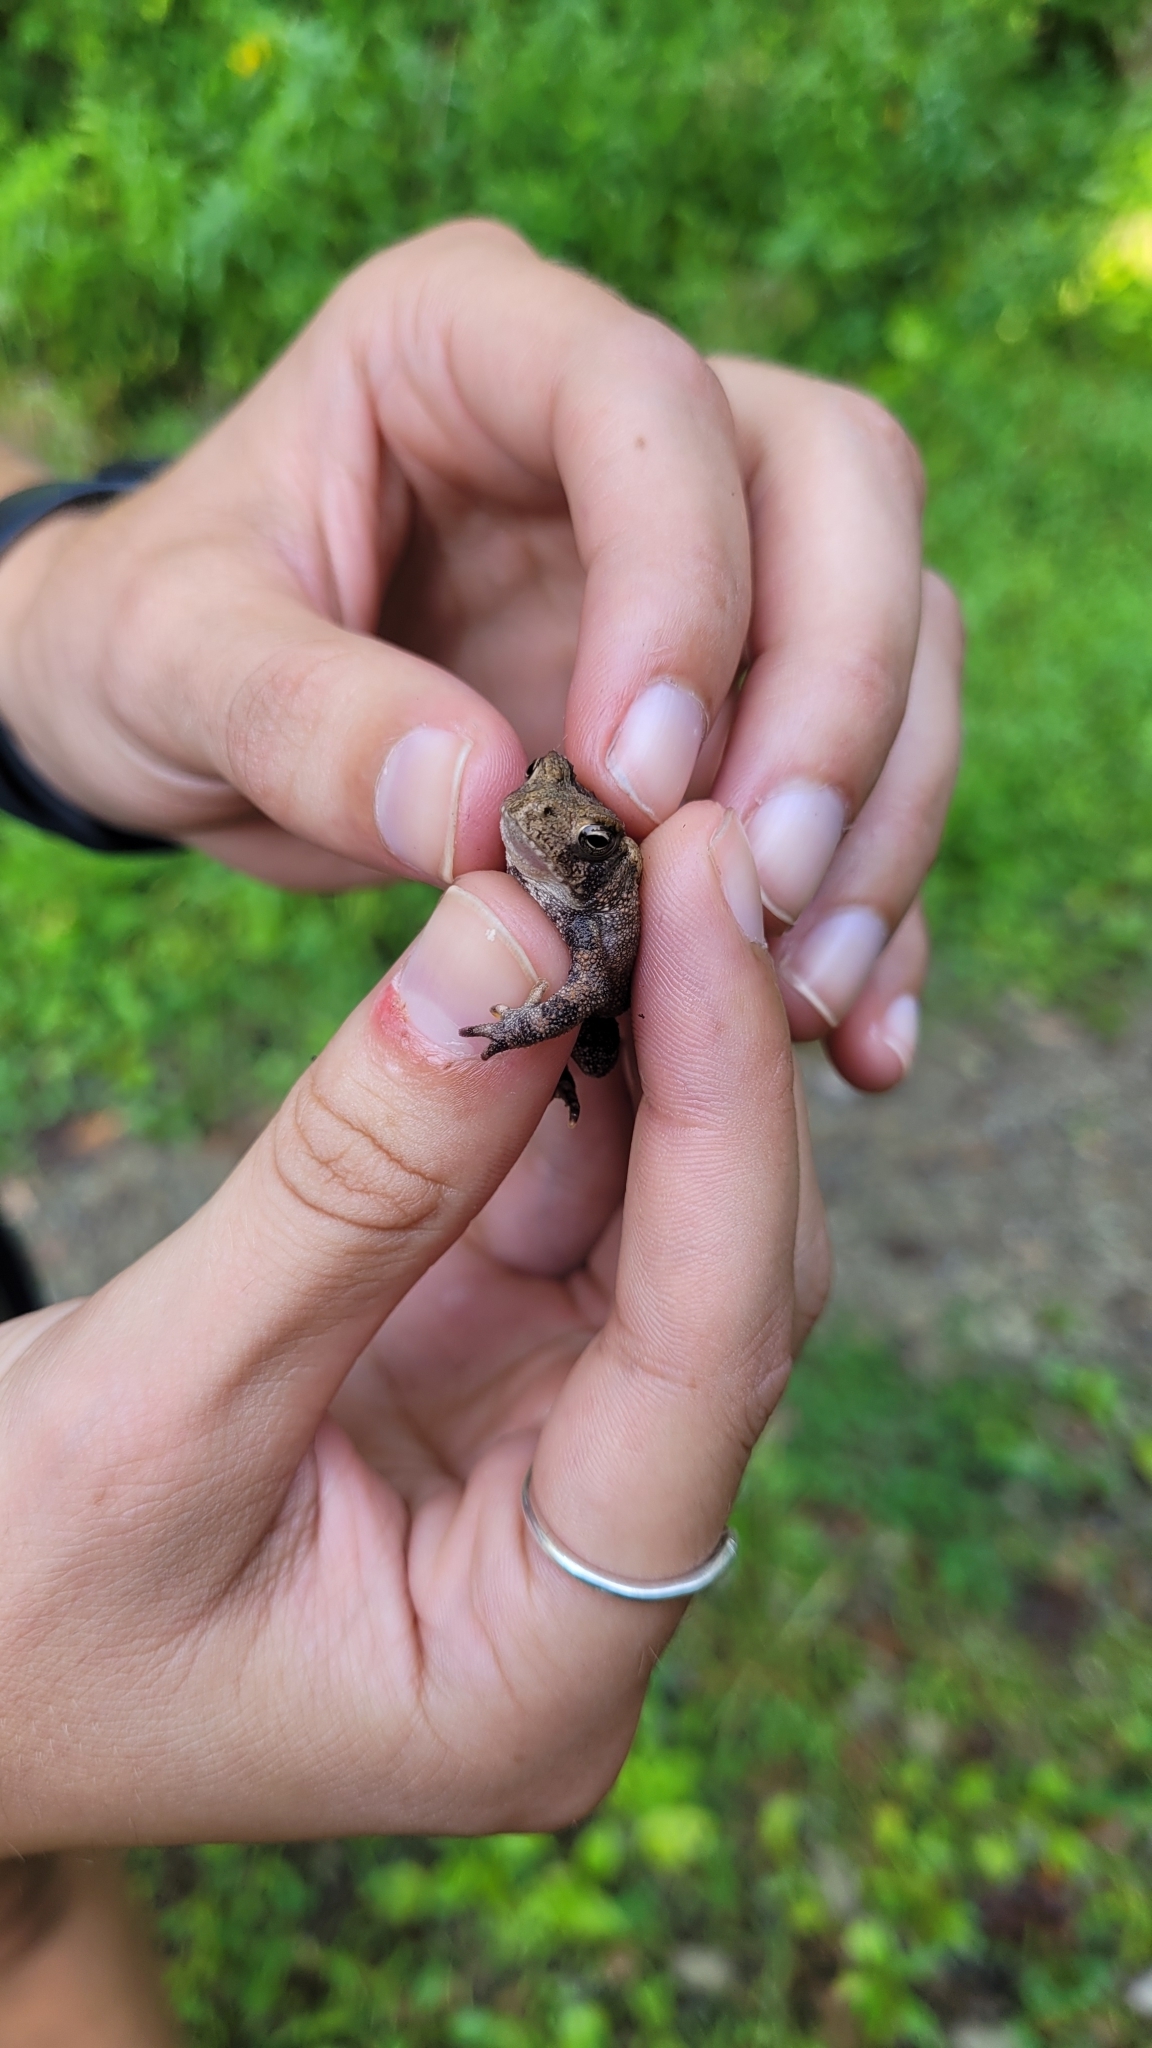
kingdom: Animalia
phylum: Chordata
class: Amphibia
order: Anura
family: Bufonidae
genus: Anaxyrus
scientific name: Anaxyrus americanus
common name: American toad
